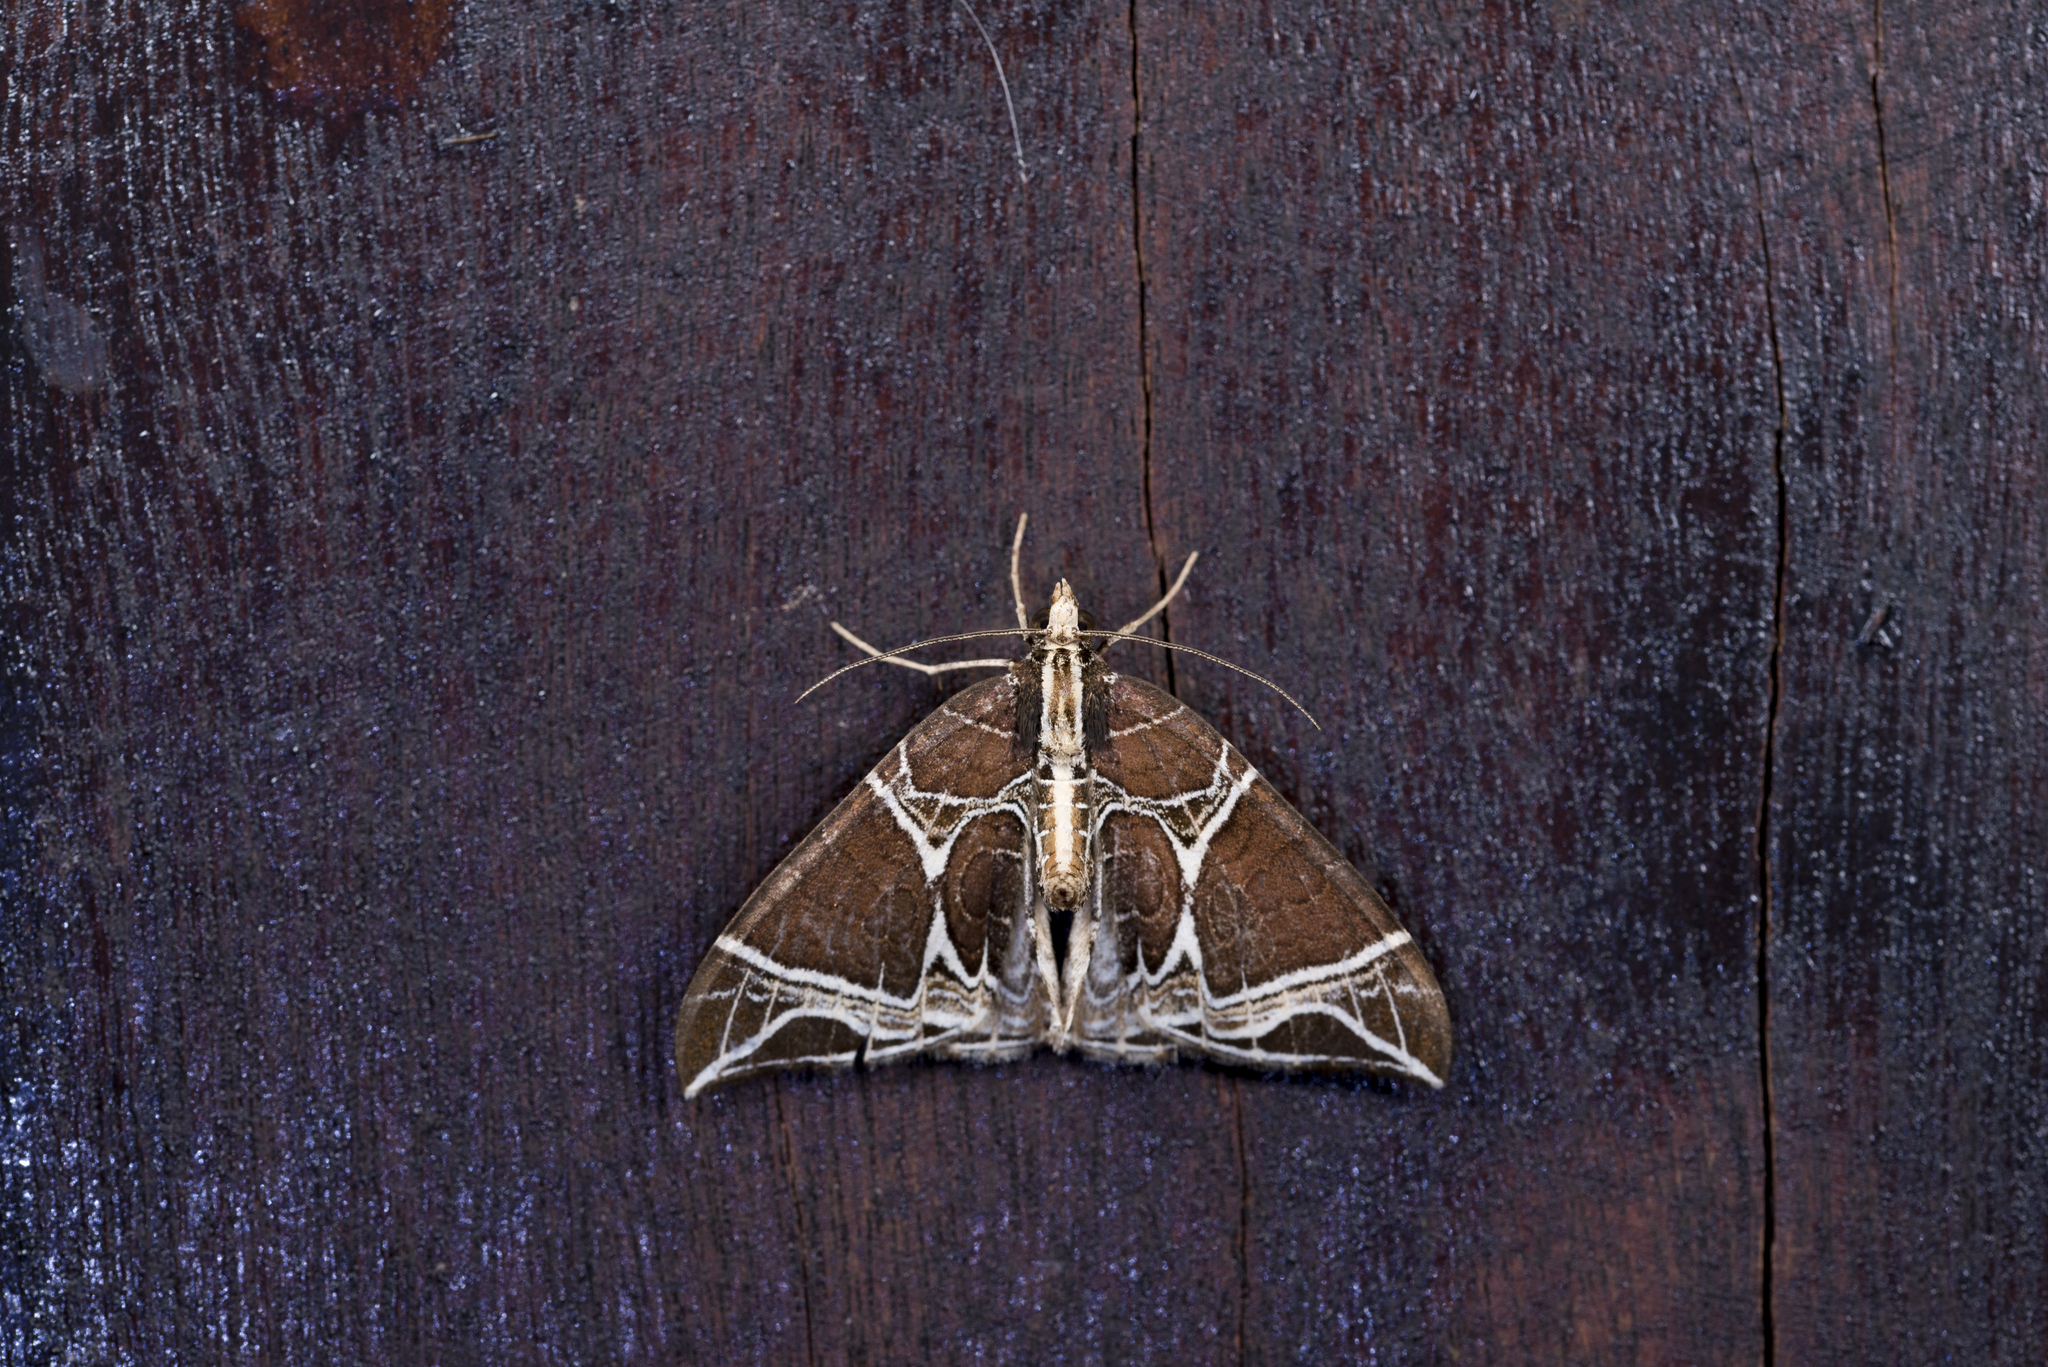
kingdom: Animalia
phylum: Arthropoda
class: Insecta
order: Lepidoptera
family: Geometridae
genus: Ecliptopera
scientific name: Ecliptopera benigna
